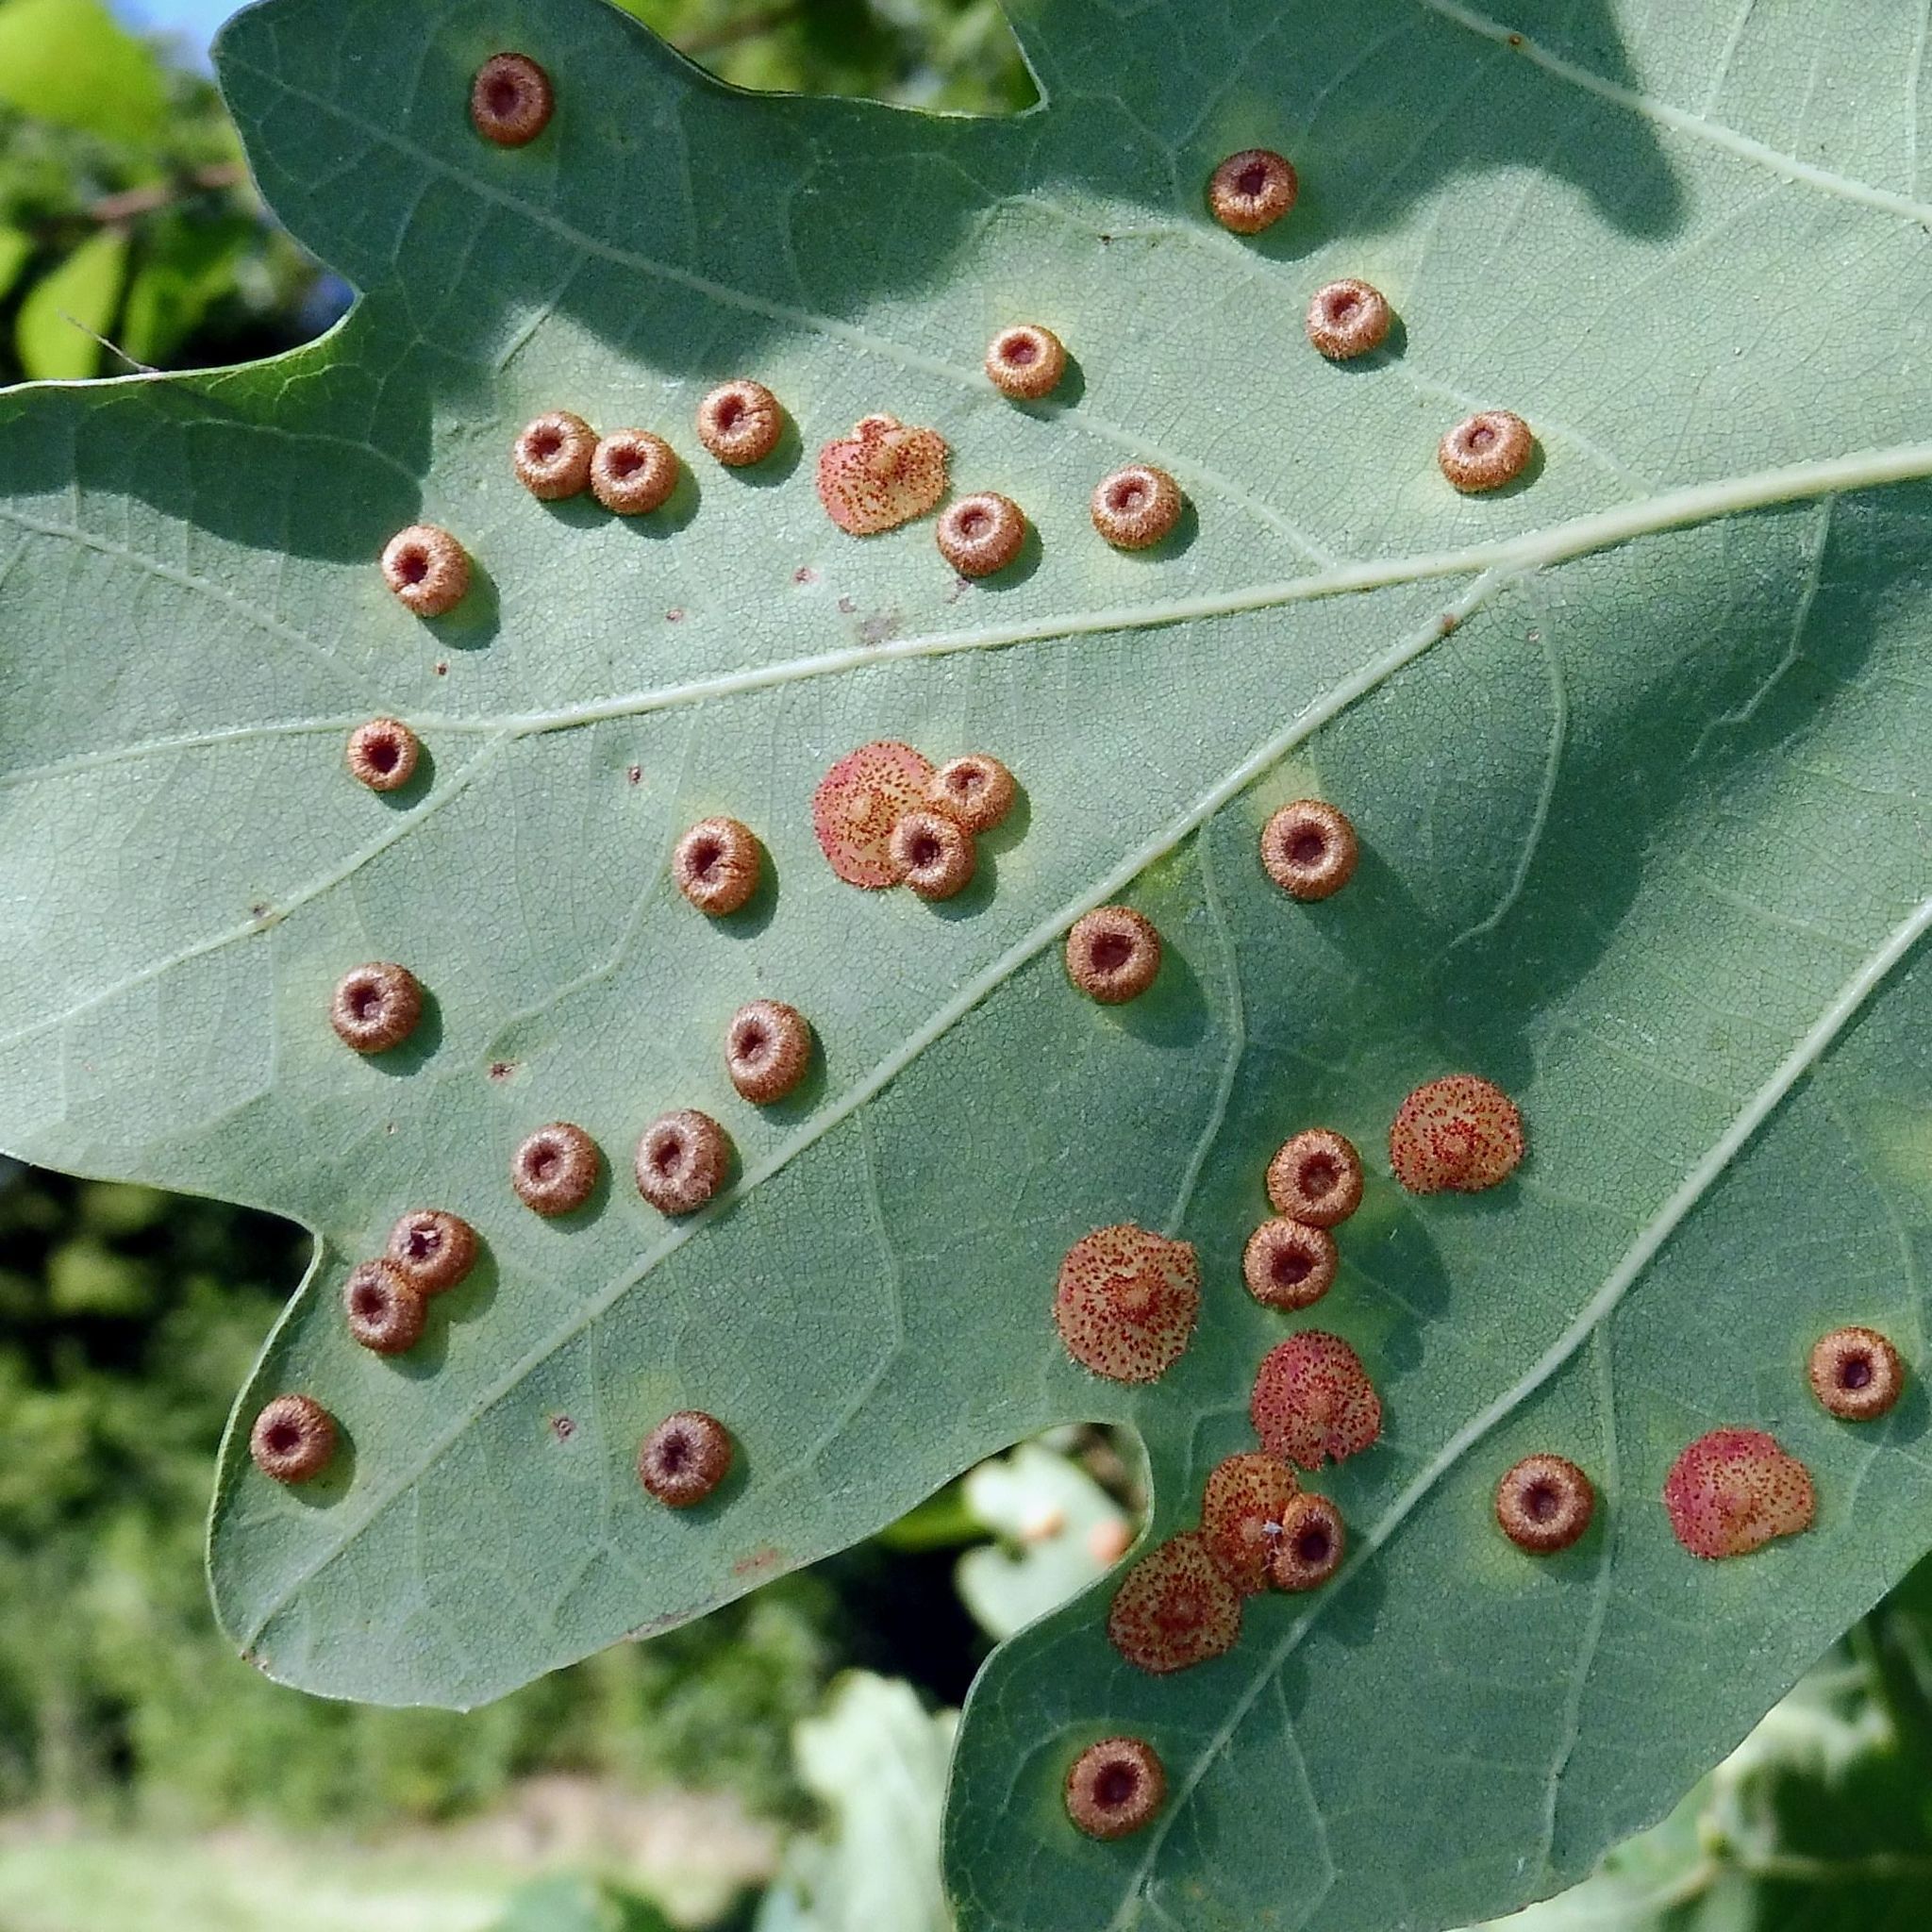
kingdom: Animalia
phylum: Arthropoda
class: Insecta
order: Hymenoptera
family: Cynipidae
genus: Neuroterus
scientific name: Neuroterus numismalis
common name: Silk-button spangle gall
